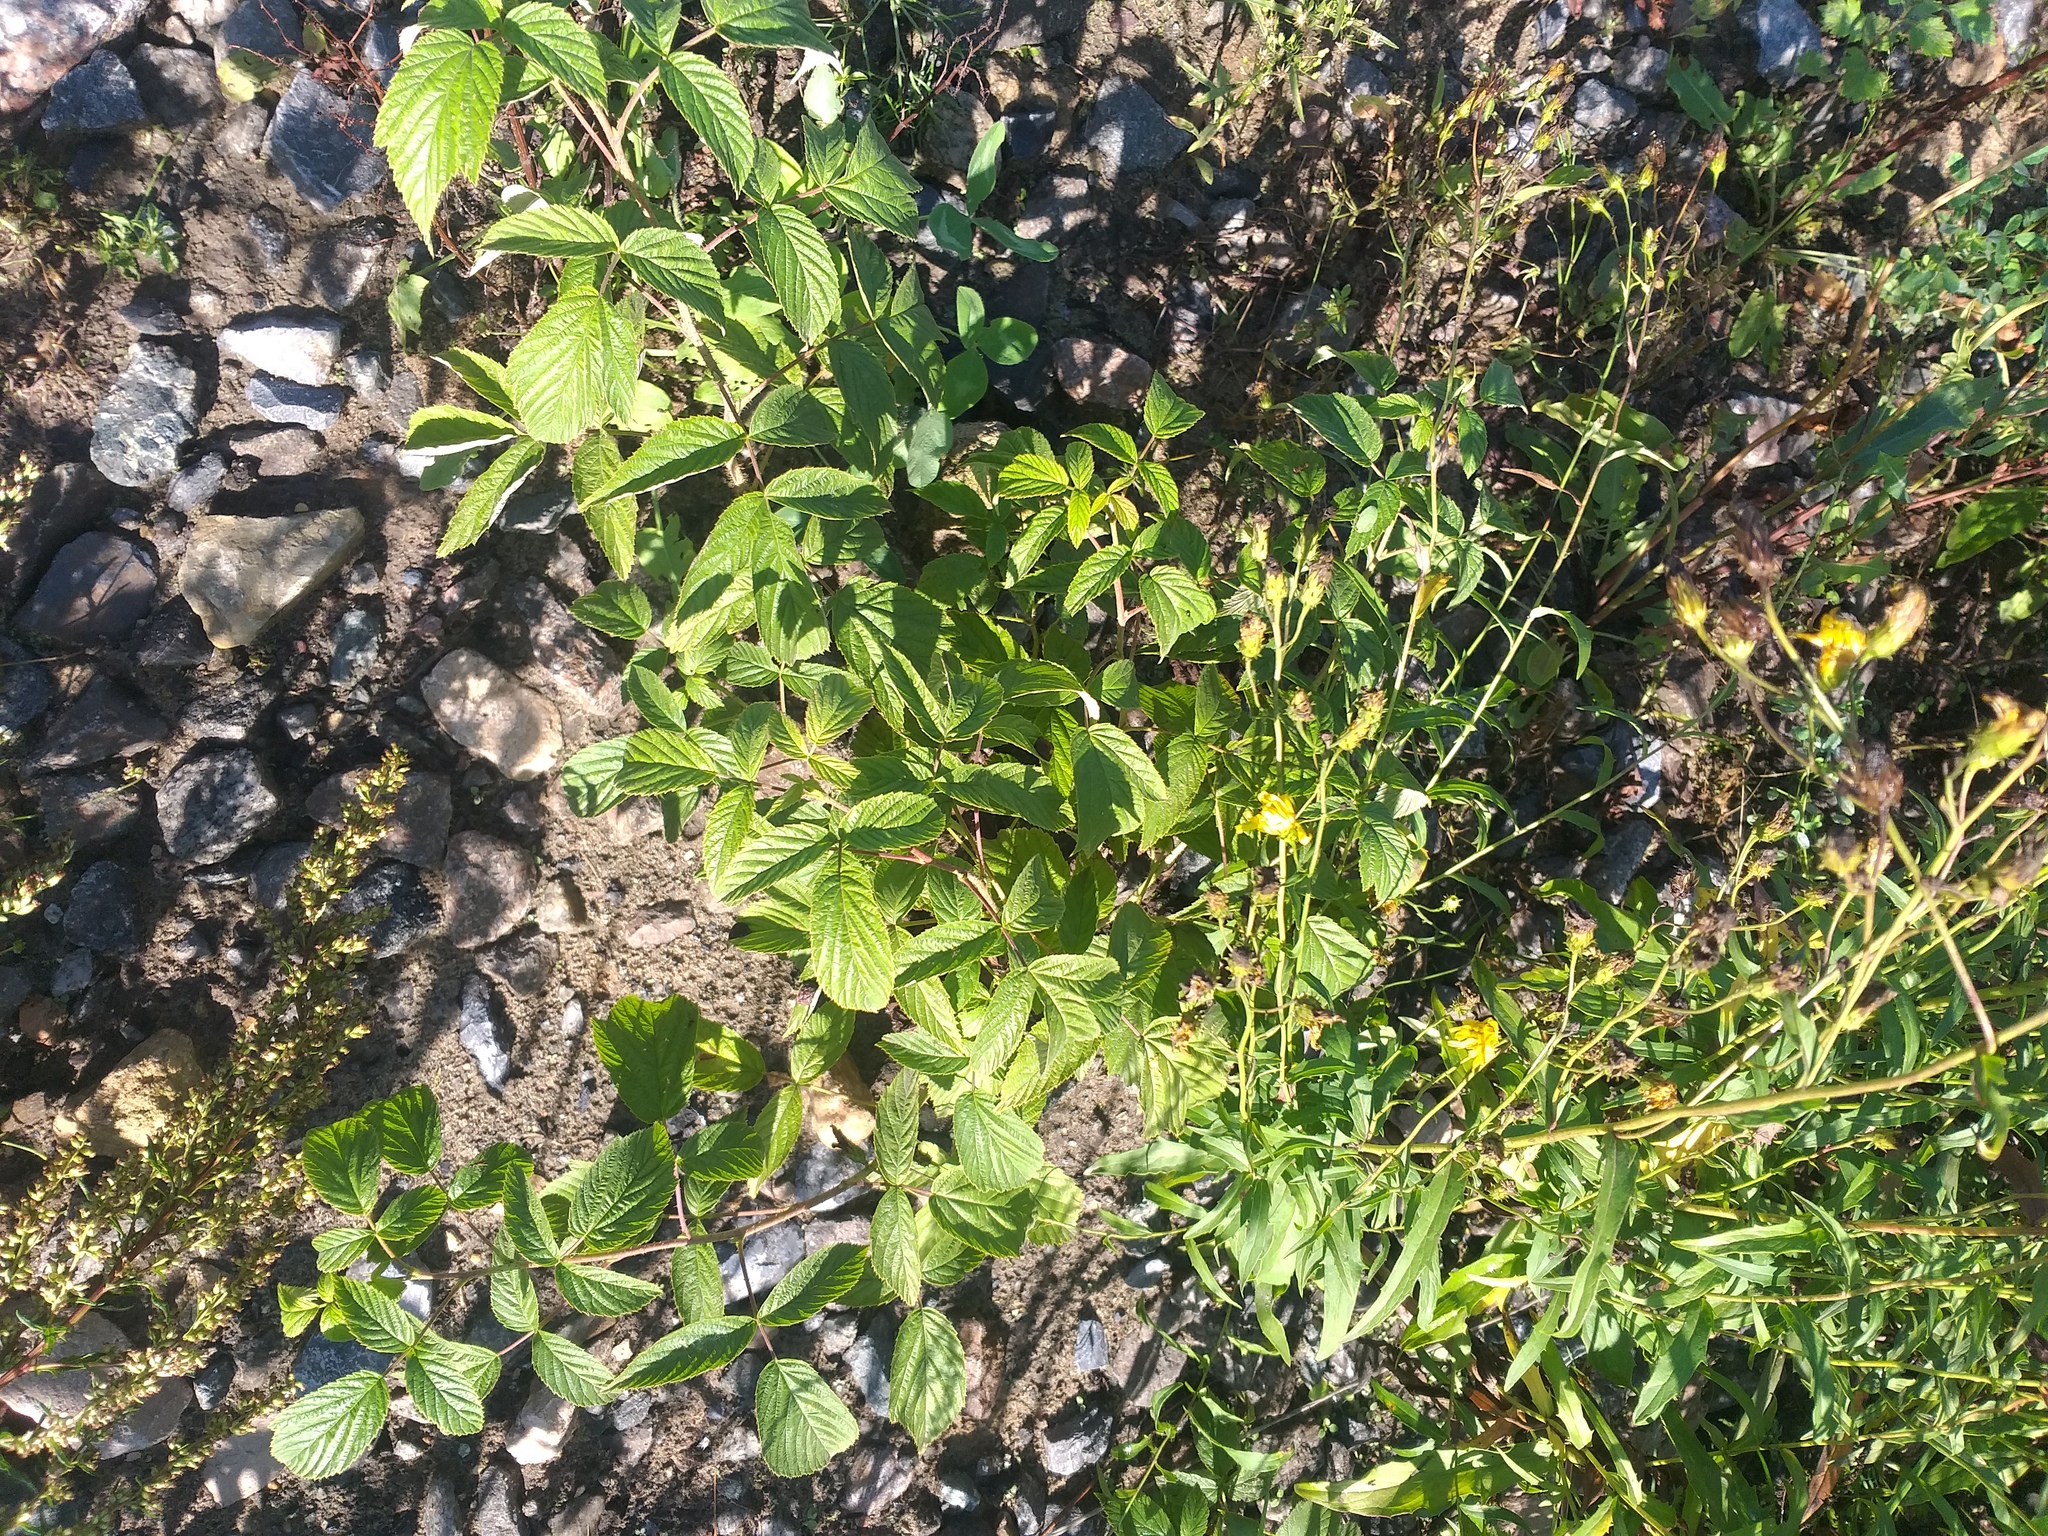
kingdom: Plantae
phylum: Tracheophyta
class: Magnoliopsida
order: Rosales
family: Rosaceae
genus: Rubus
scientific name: Rubus idaeus
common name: Raspberry
